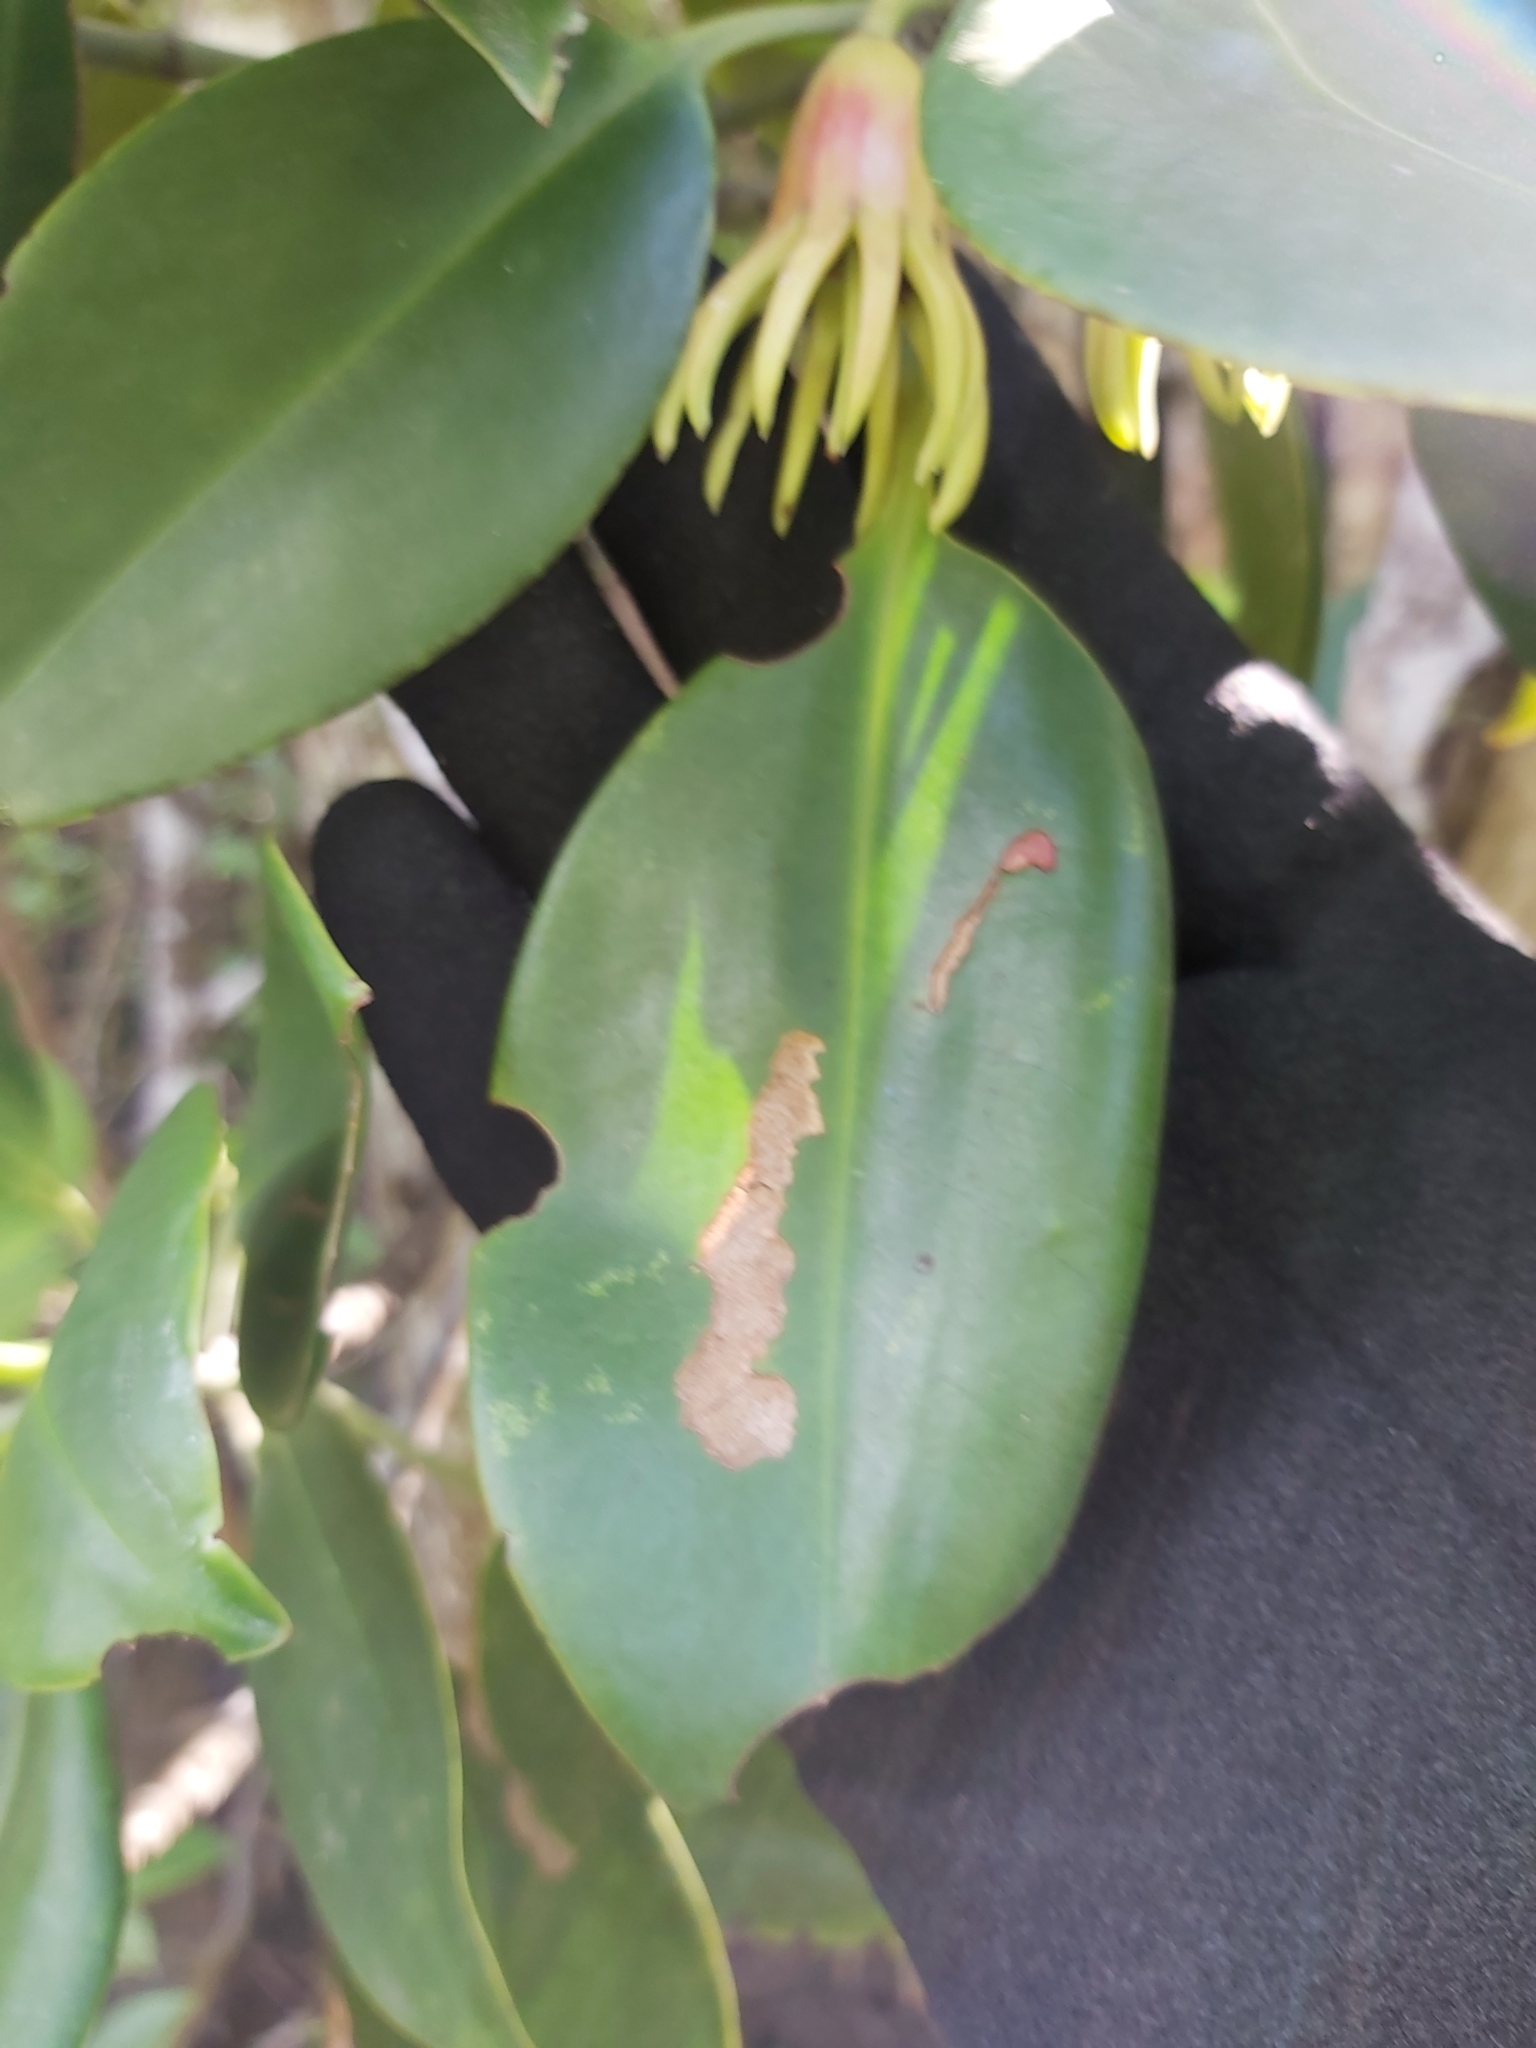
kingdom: Plantae
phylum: Tracheophyta
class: Magnoliopsida
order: Malpighiales
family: Rhizophoraceae
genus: Bruguiera
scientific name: Bruguiera gymnorhiza
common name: Oriental mangrove
